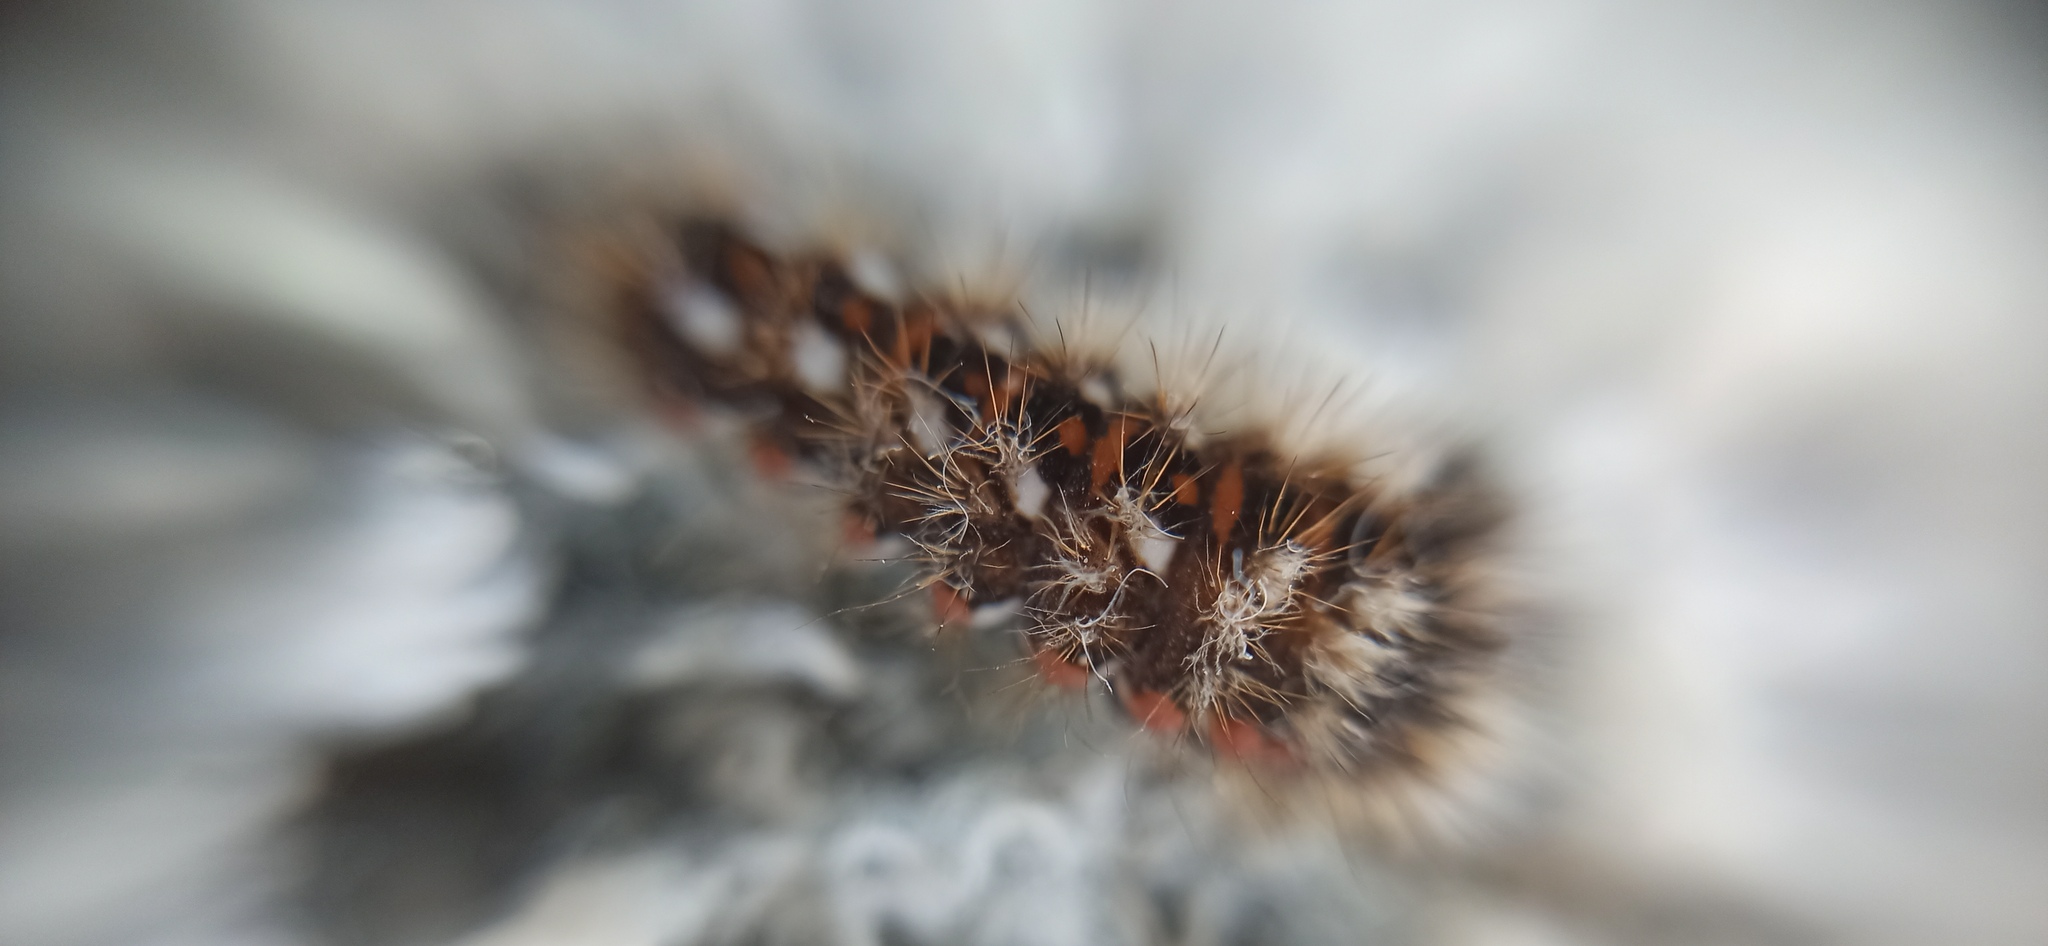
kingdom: Animalia
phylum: Arthropoda
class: Insecta
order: Lepidoptera
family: Noctuidae
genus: Acronicta
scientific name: Acronicta rumicis
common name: Knot grass
